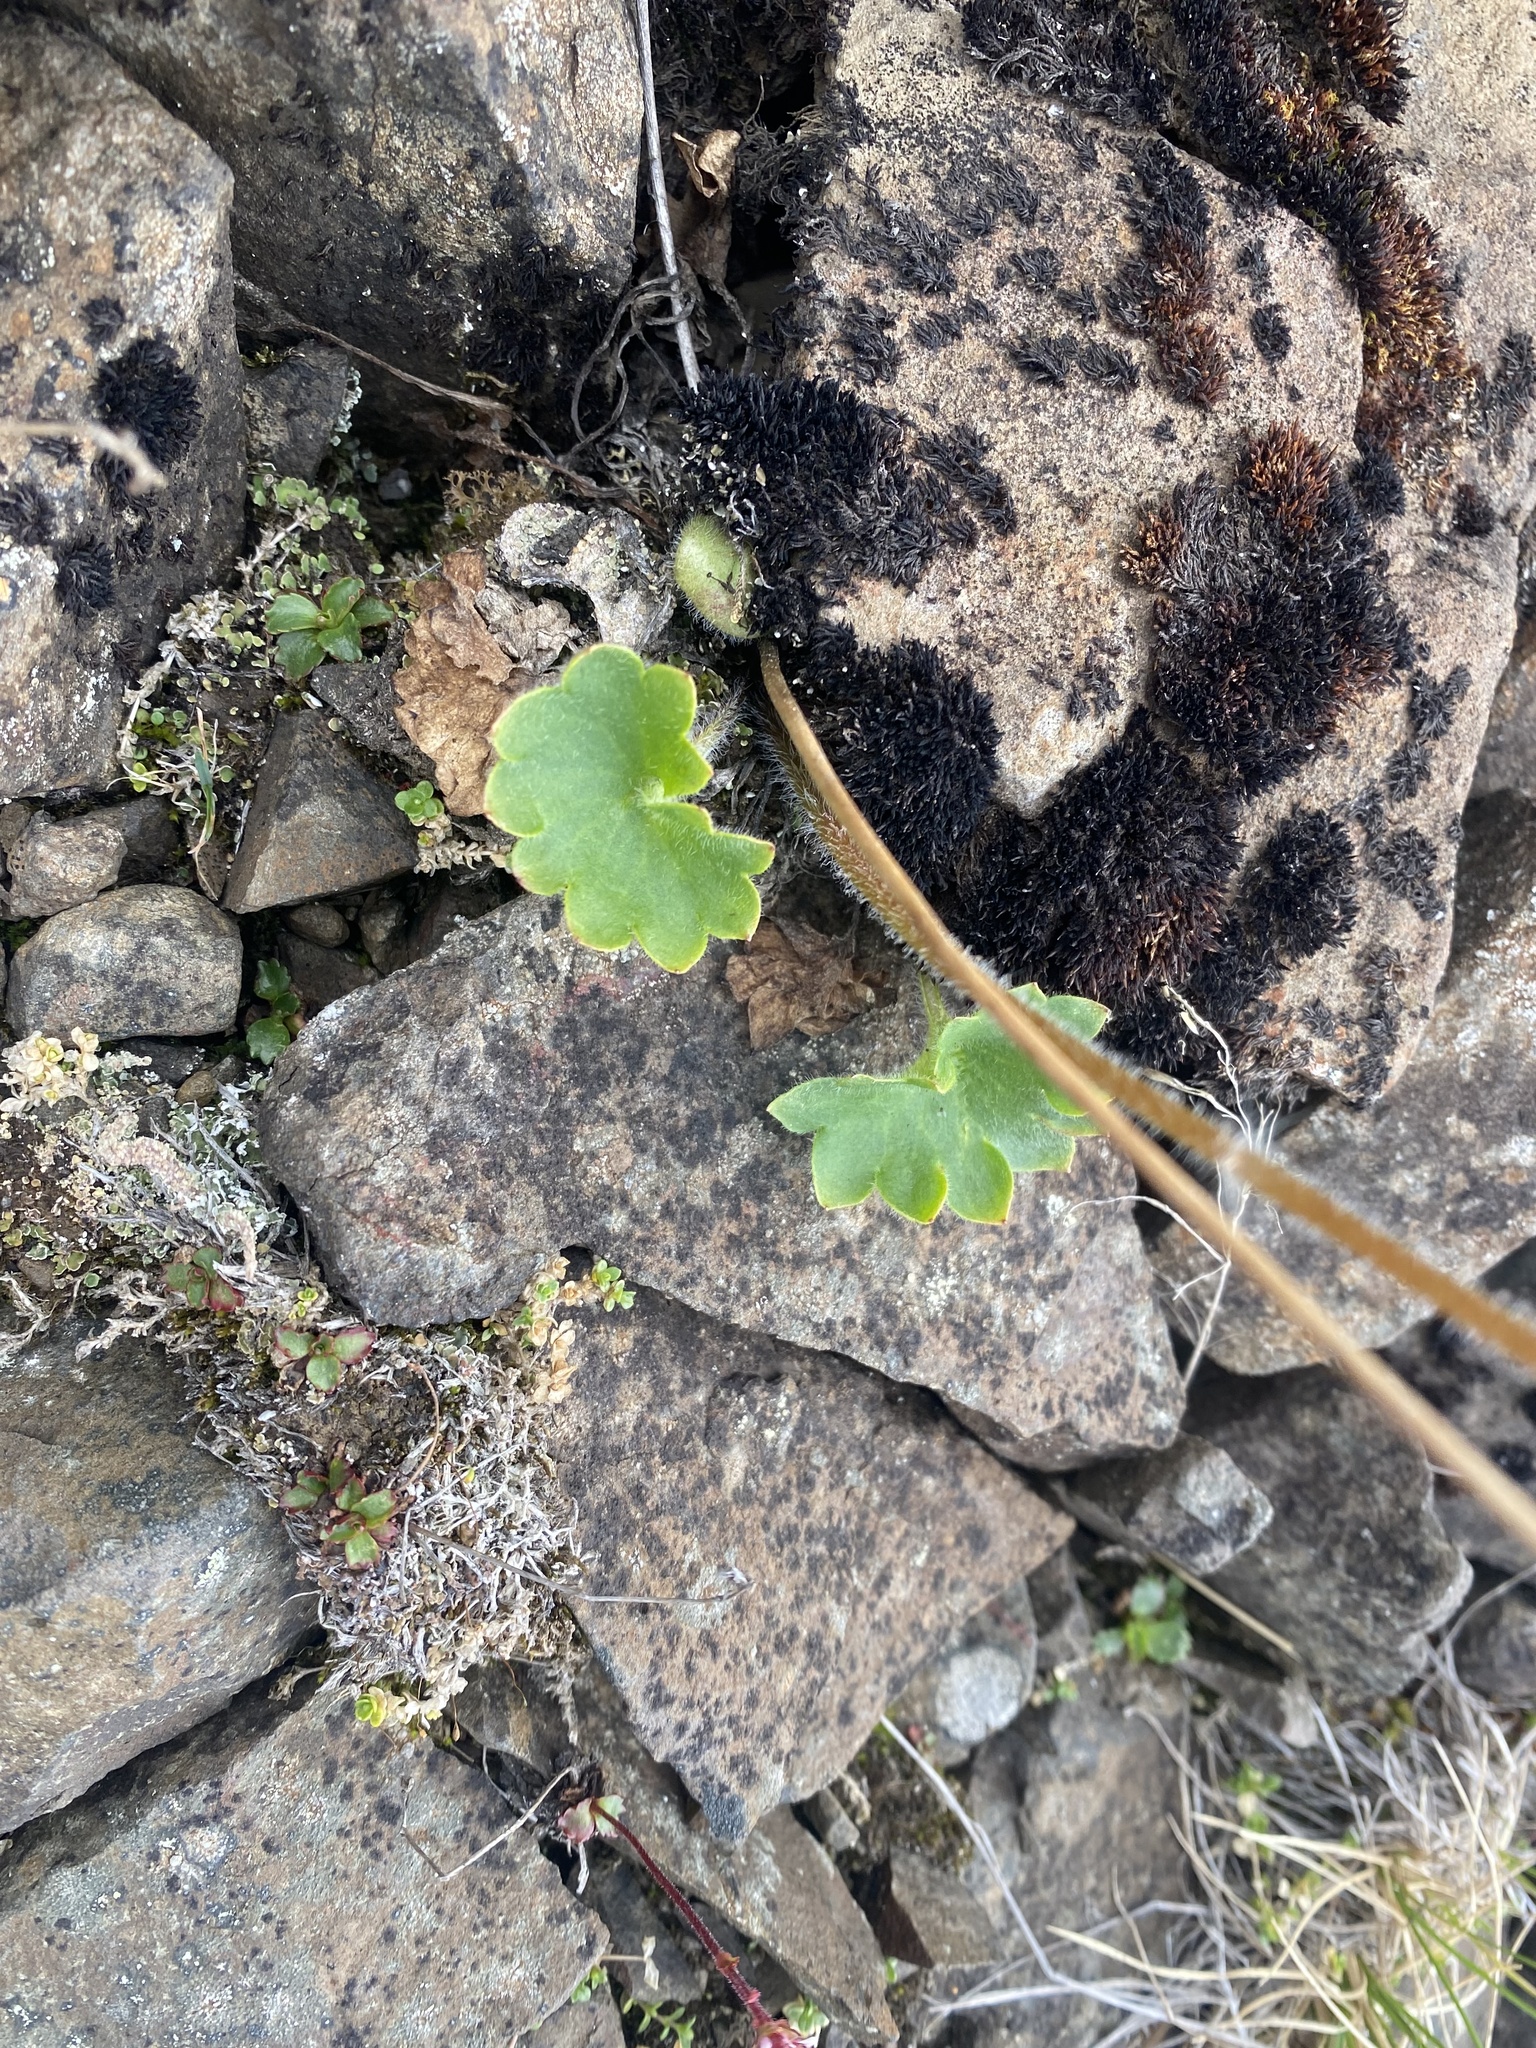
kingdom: Plantae
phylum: Tracheophyta
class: Magnoliopsida
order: Saxifragales
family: Saxifragaceae
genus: Micranthes
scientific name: Micranthes nelsoniana
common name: Nelson's saxifrage
